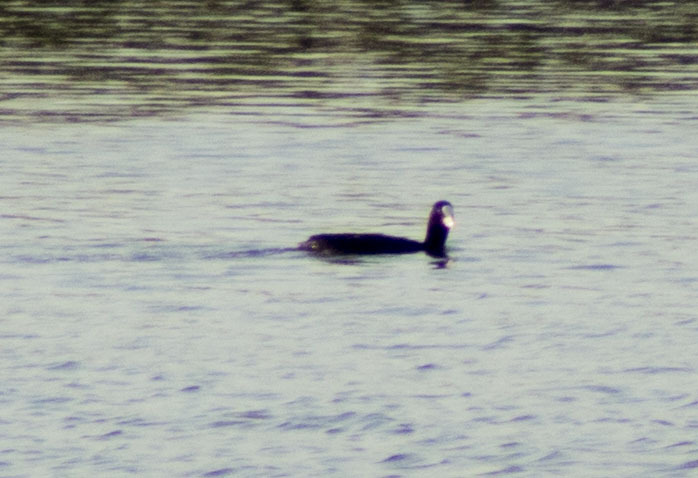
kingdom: Animalia
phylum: Chordata
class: Aves
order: Gruiformes
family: Rallidae
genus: Fulica
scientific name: Fulica atra
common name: Eurasian coot
